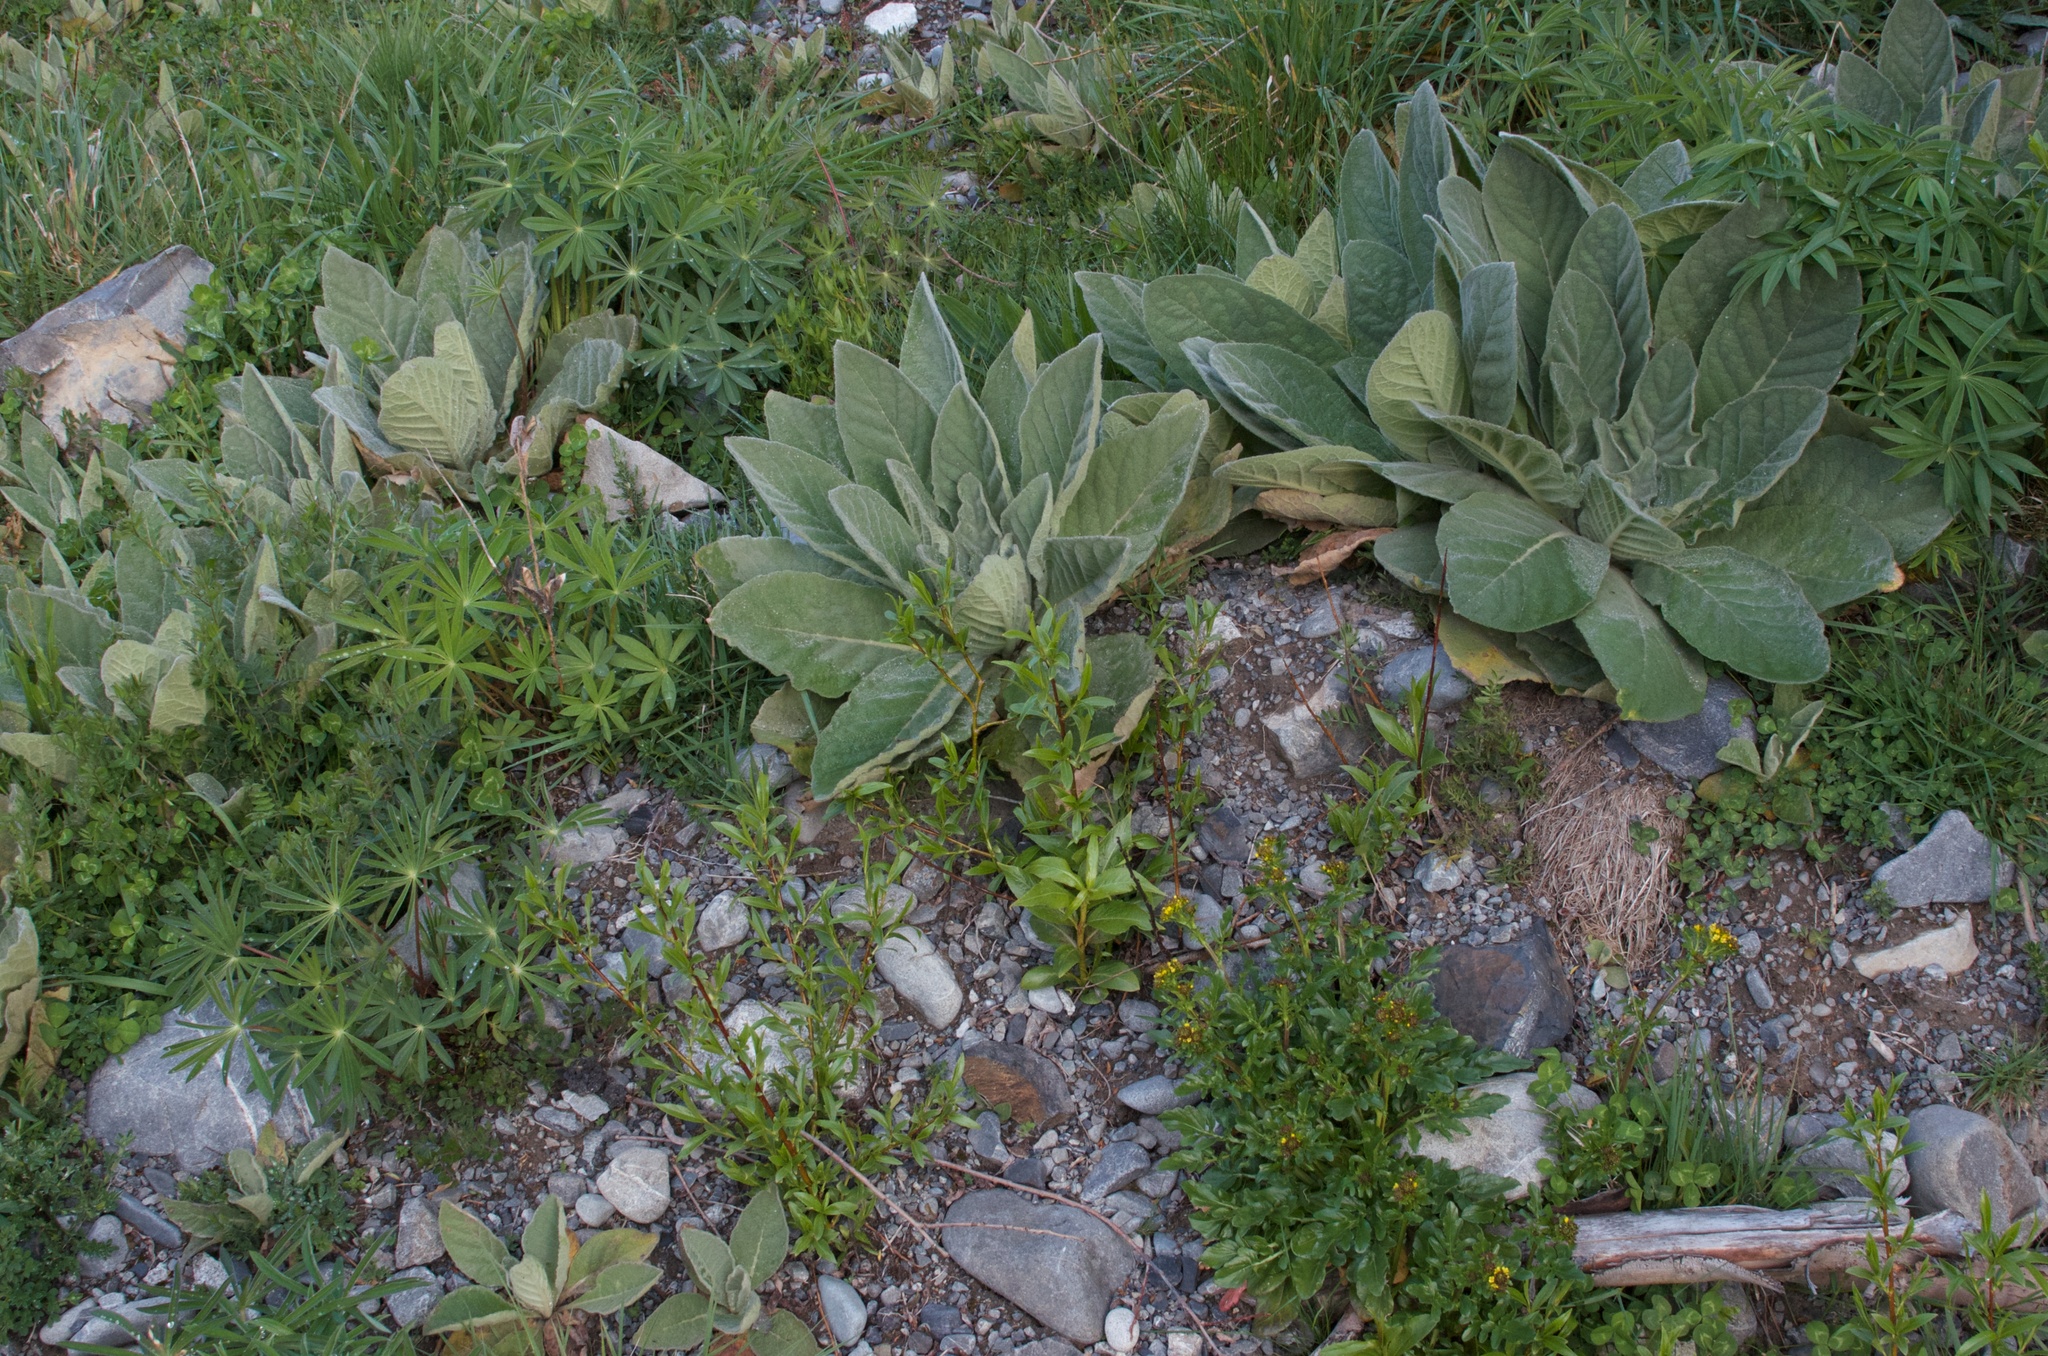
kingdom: Plantae
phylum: Tracheophyta
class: Magnoliopsida
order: Lamiales
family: Scrophulariaceae
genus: Verbascum
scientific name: Verbascum thapsus
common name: Common mullein
